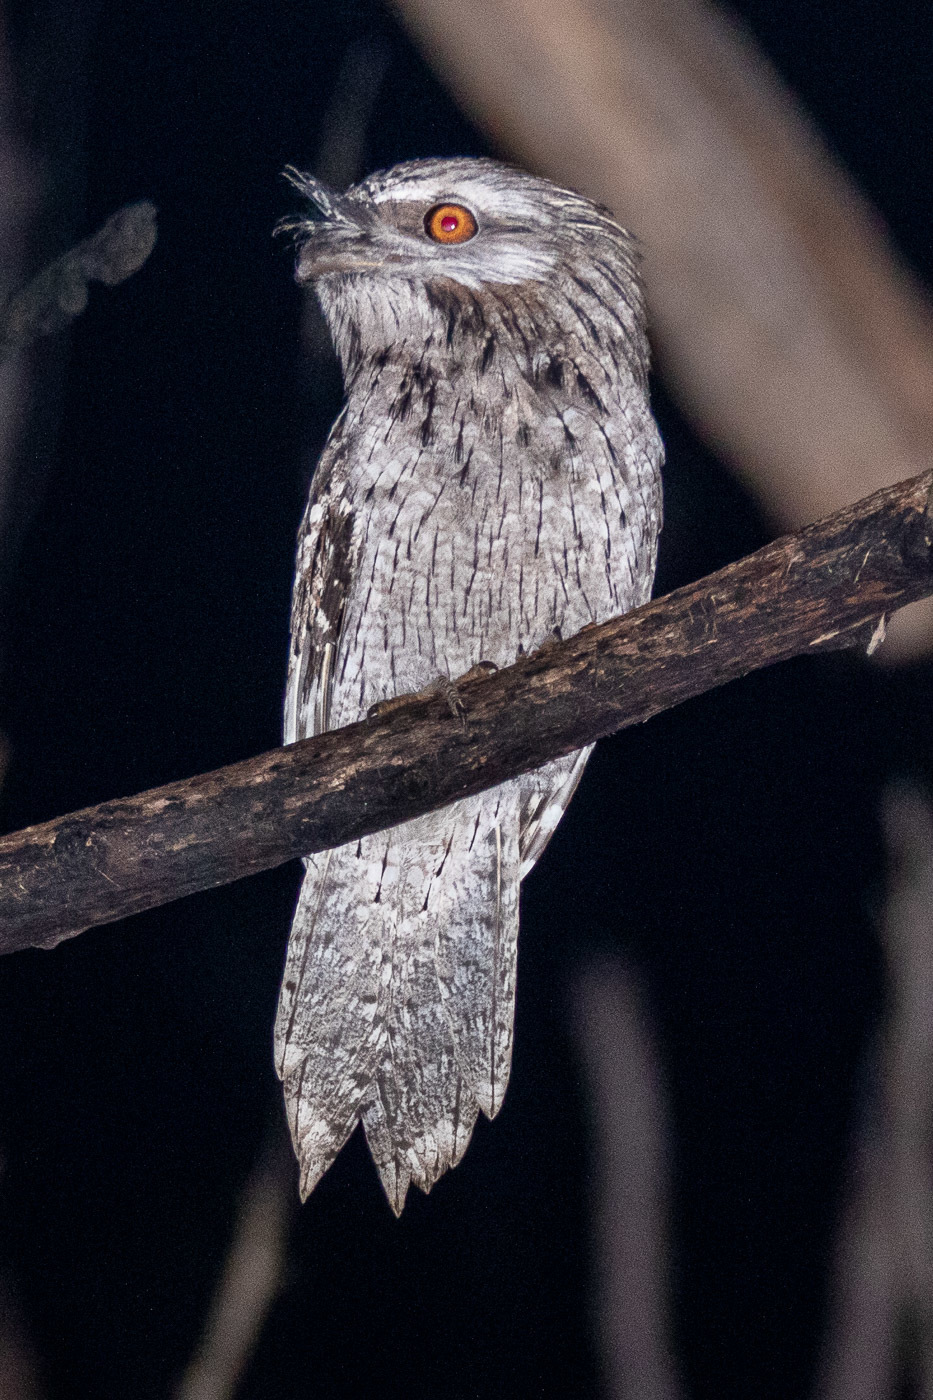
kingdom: Animalia
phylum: Chordata
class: Aves
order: Caprimulgiformes
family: Podargidae
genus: Podargus
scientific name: Podargus strigoides
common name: Tawny frogmouth
